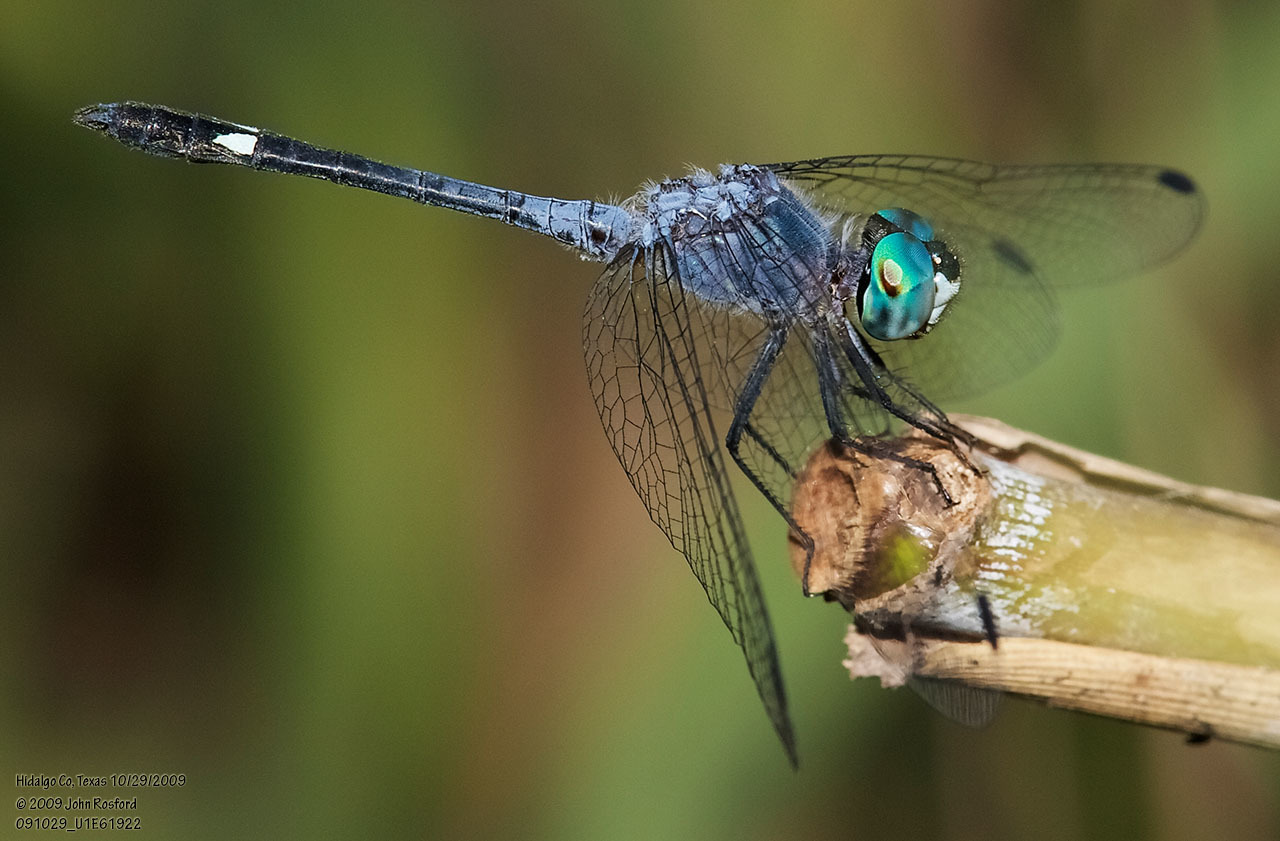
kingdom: Animalia
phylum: Arthropoda
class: Insecta
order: Odonata
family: Libellulidae
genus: Micrathyria
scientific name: Micrathyria aequalis
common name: Spot-tailed dasher
